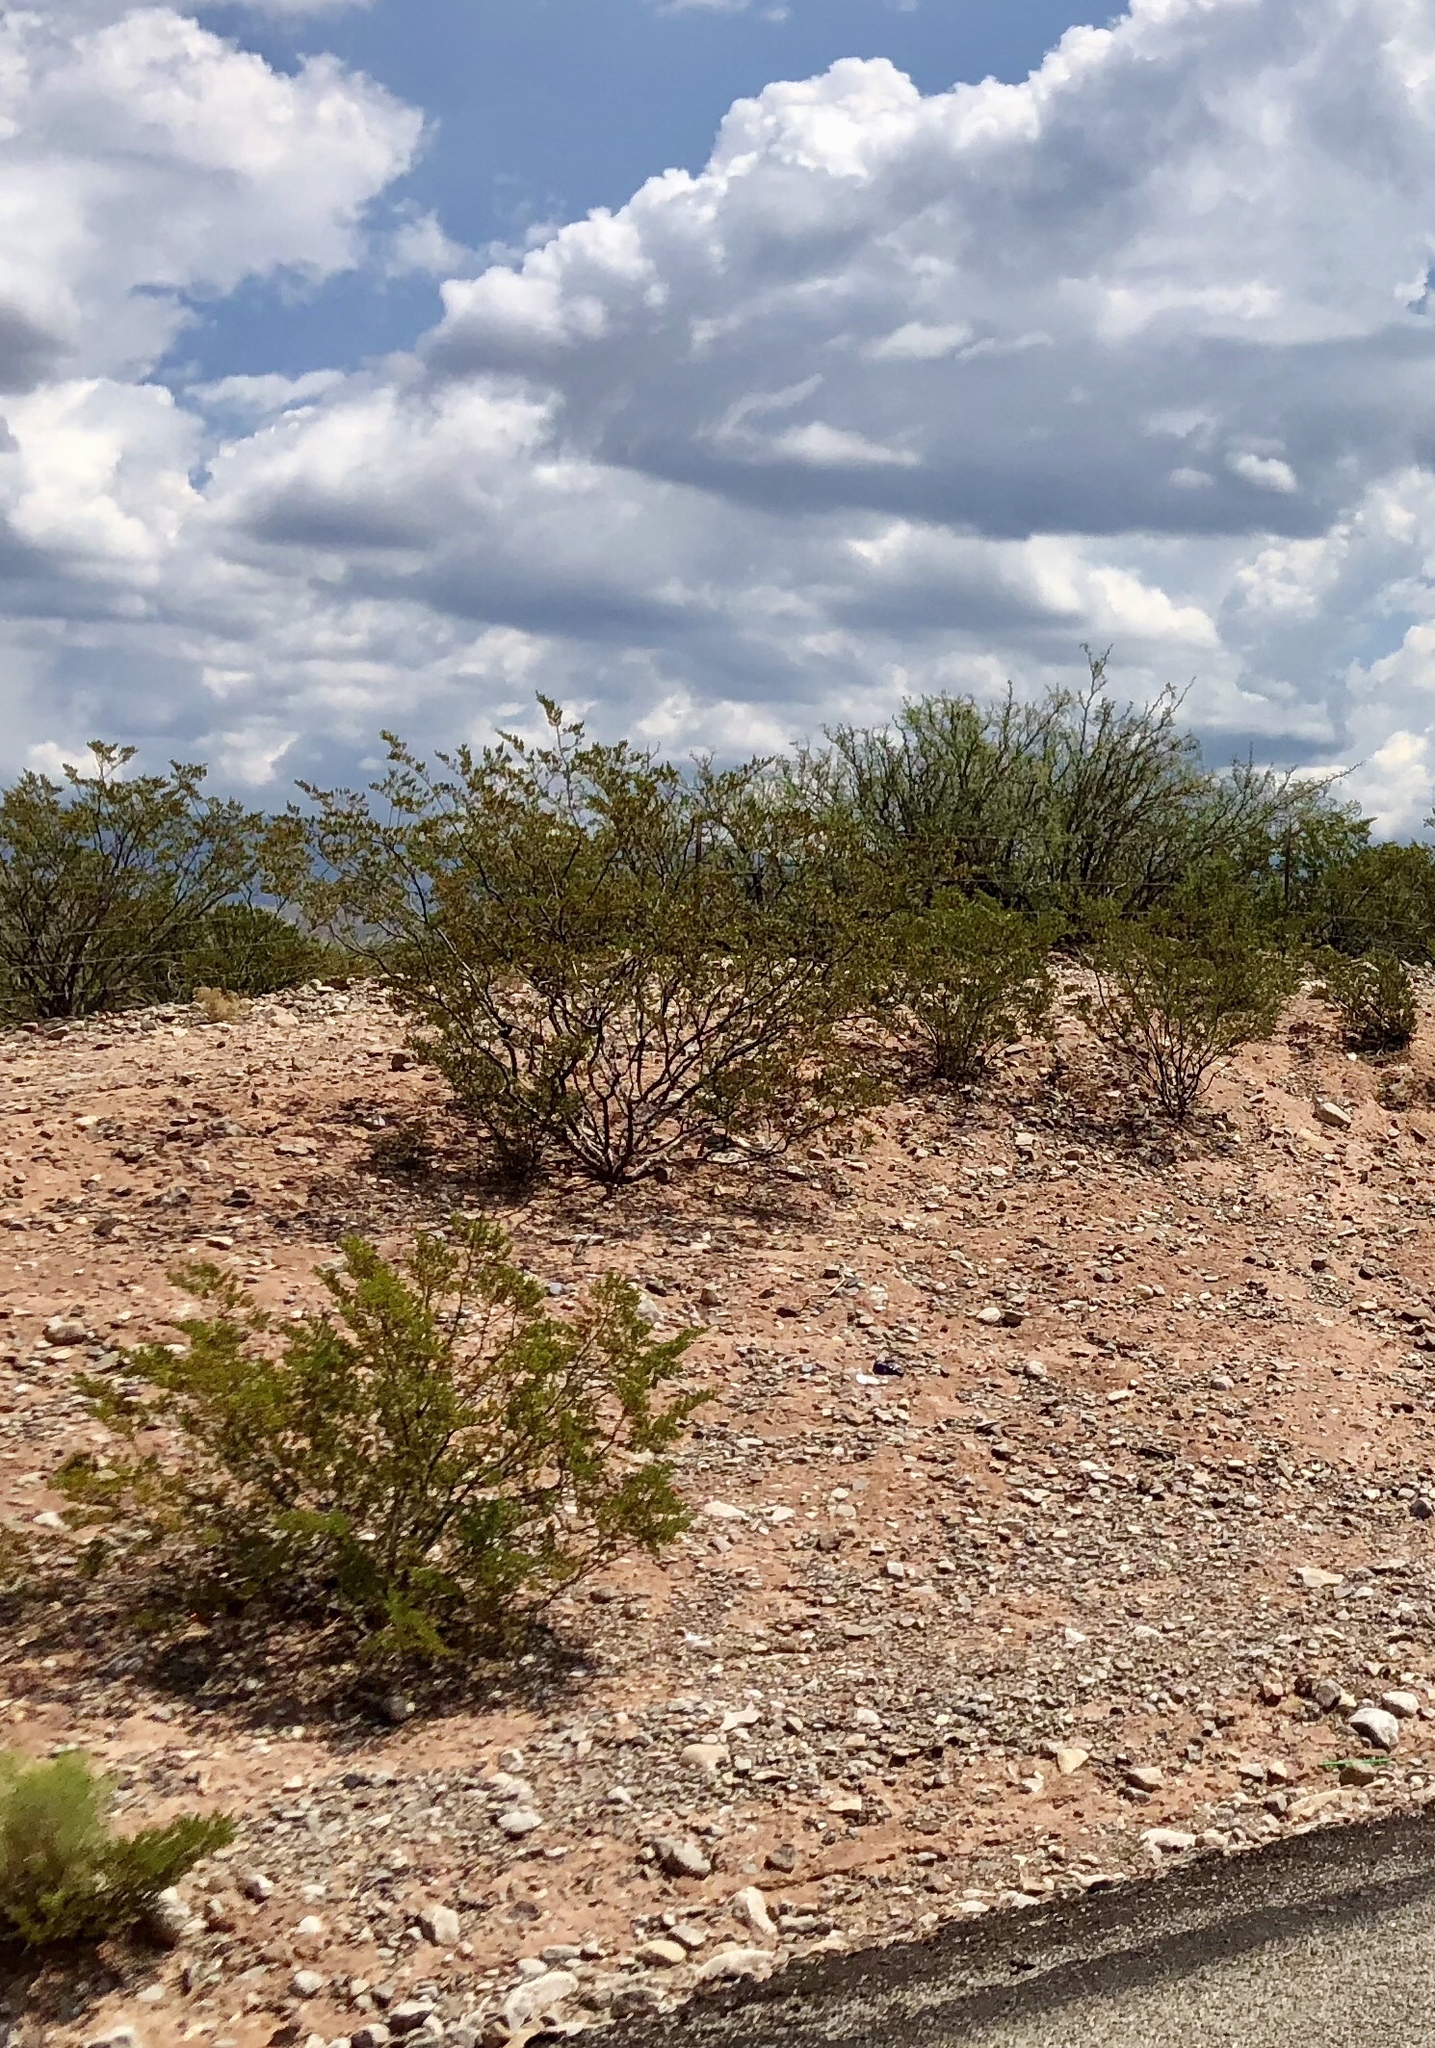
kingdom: Plantae
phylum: Tracheophyta
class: Magnoliopsida
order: Zygophyllales
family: Zygophyllaceae
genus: Larrea
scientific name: Larrea tridentata
